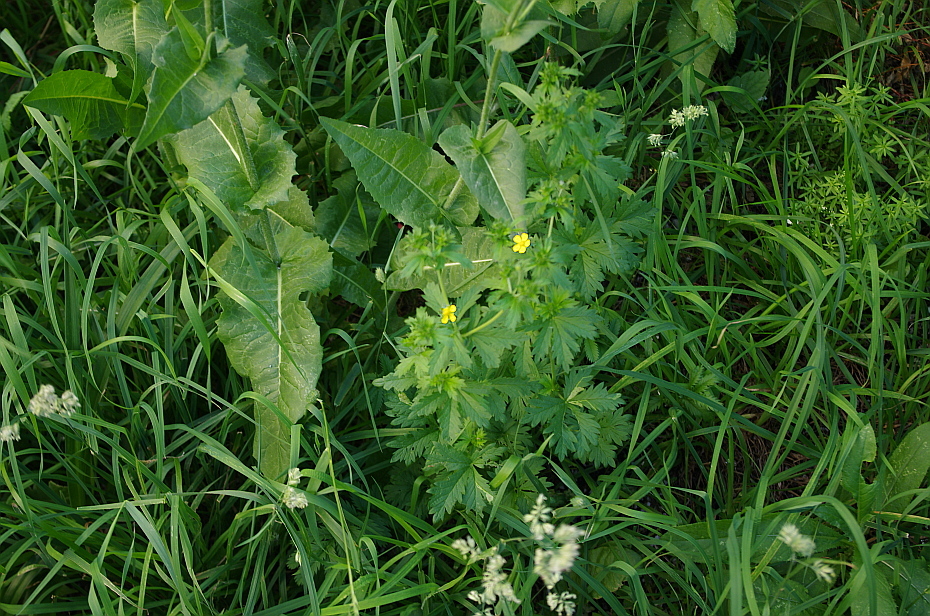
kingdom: Plantae
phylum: Tracheophyta
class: Magnoliopsida
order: Rosales
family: Rosaceae
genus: Potentilla
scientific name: Potentilla intermedia
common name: Downy cinquefoil
